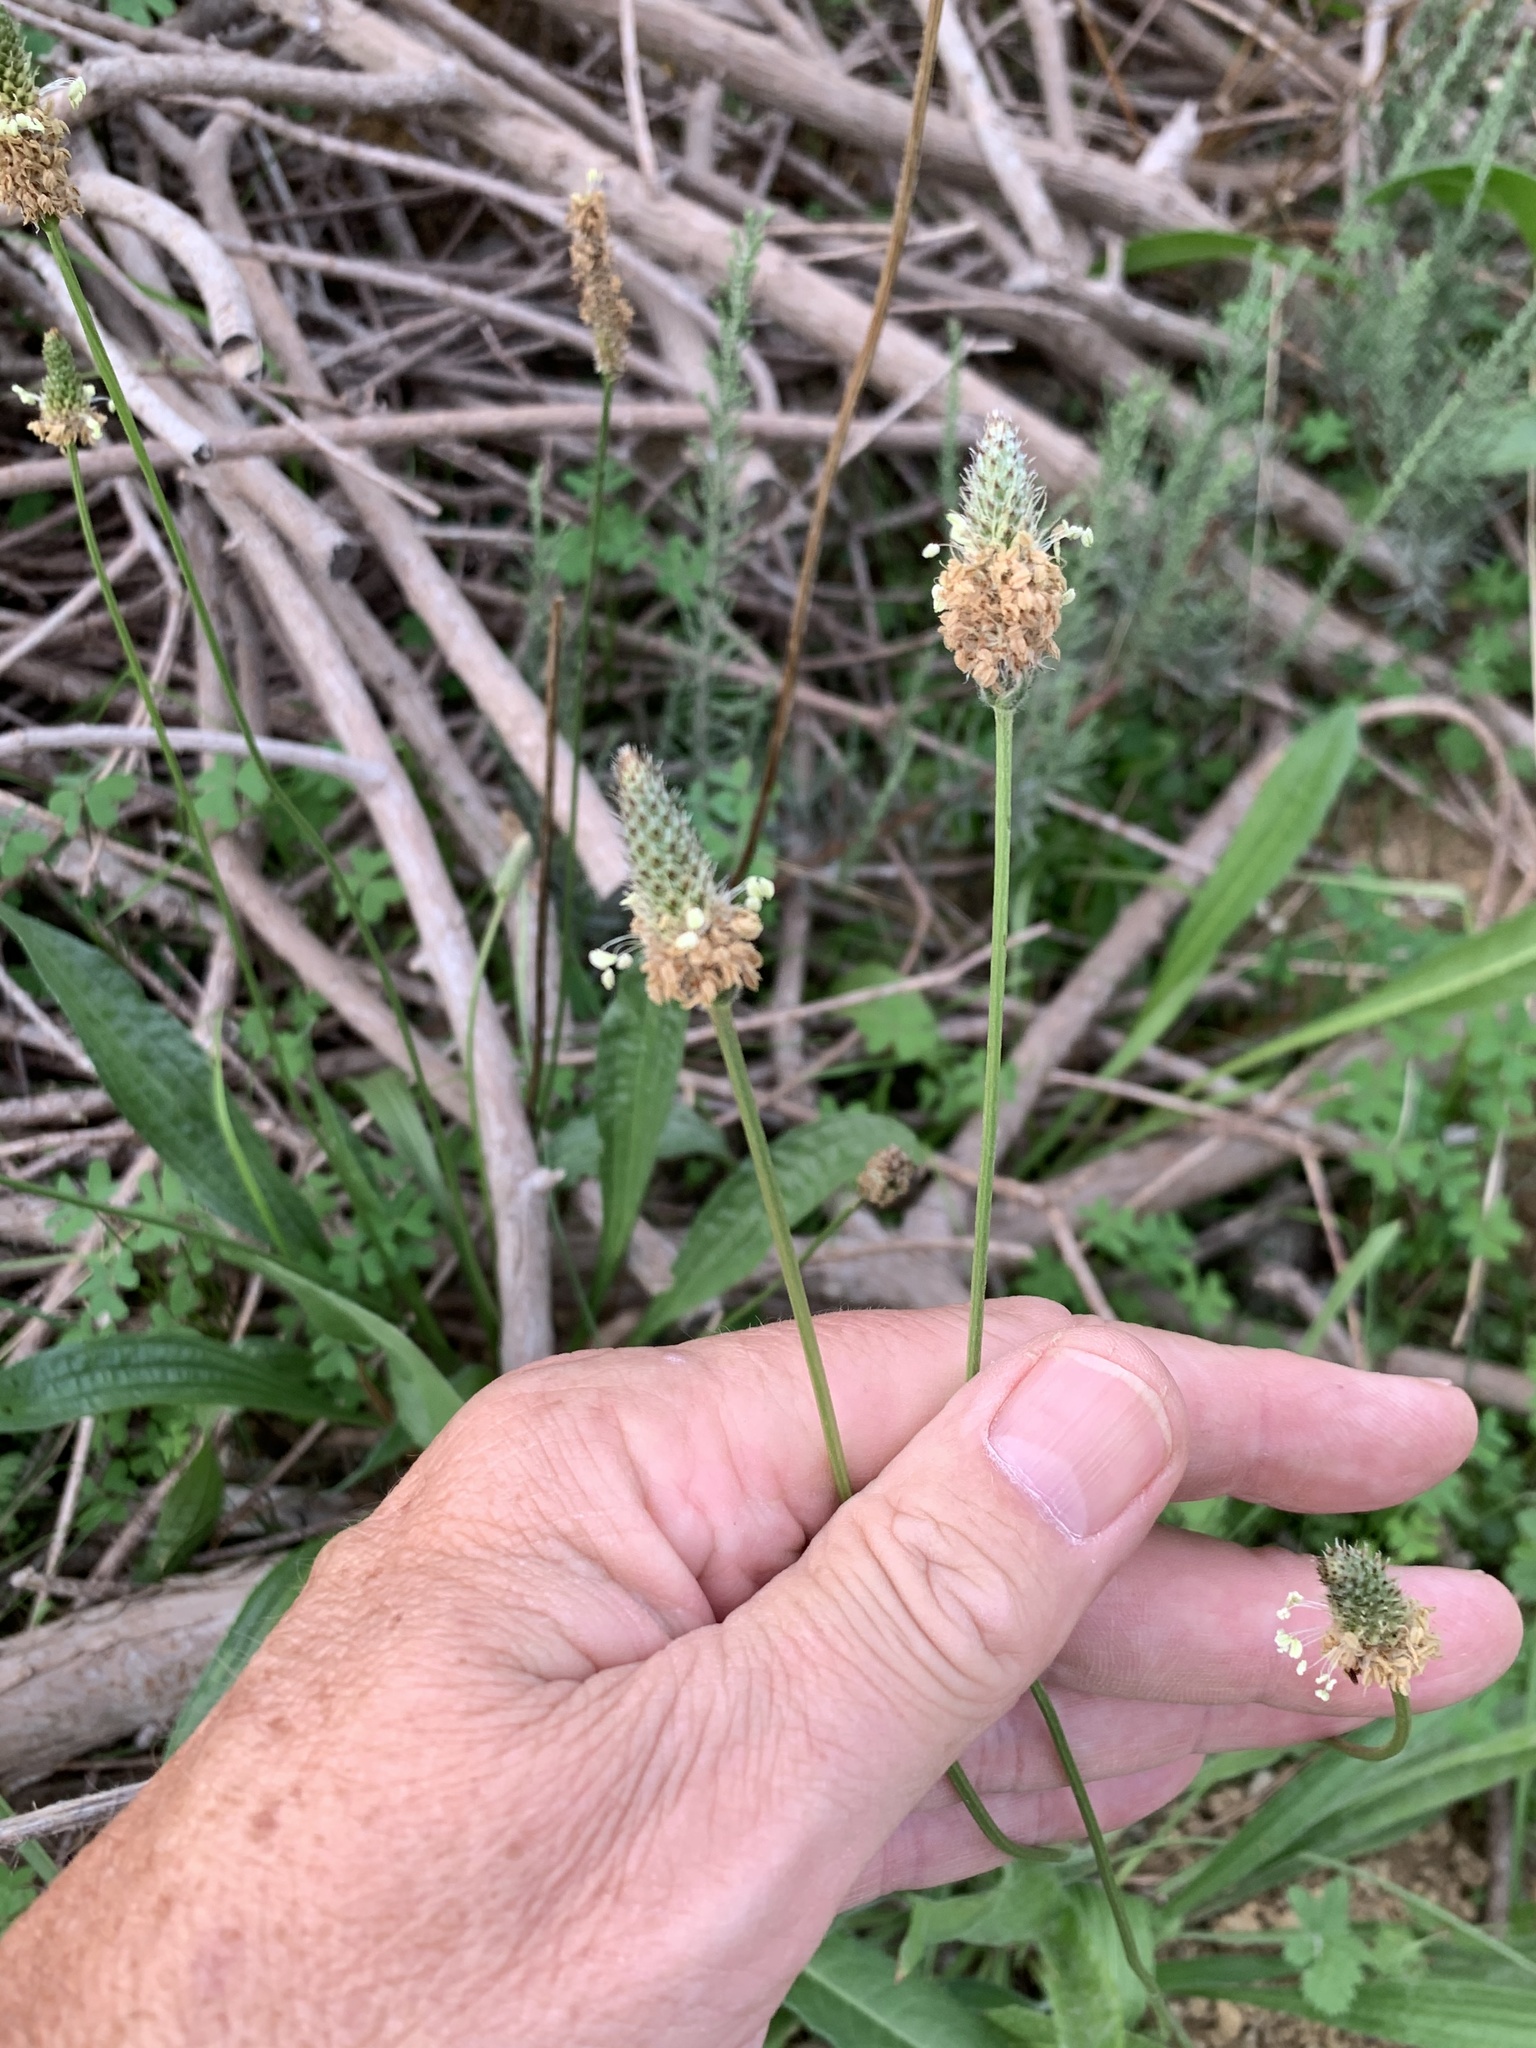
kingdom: Plantae
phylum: Tracheophyta
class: Magnoliopsida
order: Lamiales
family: Plantaginaceae
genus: Plantago
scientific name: Plantago lanceolata
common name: Ribwort plantain
